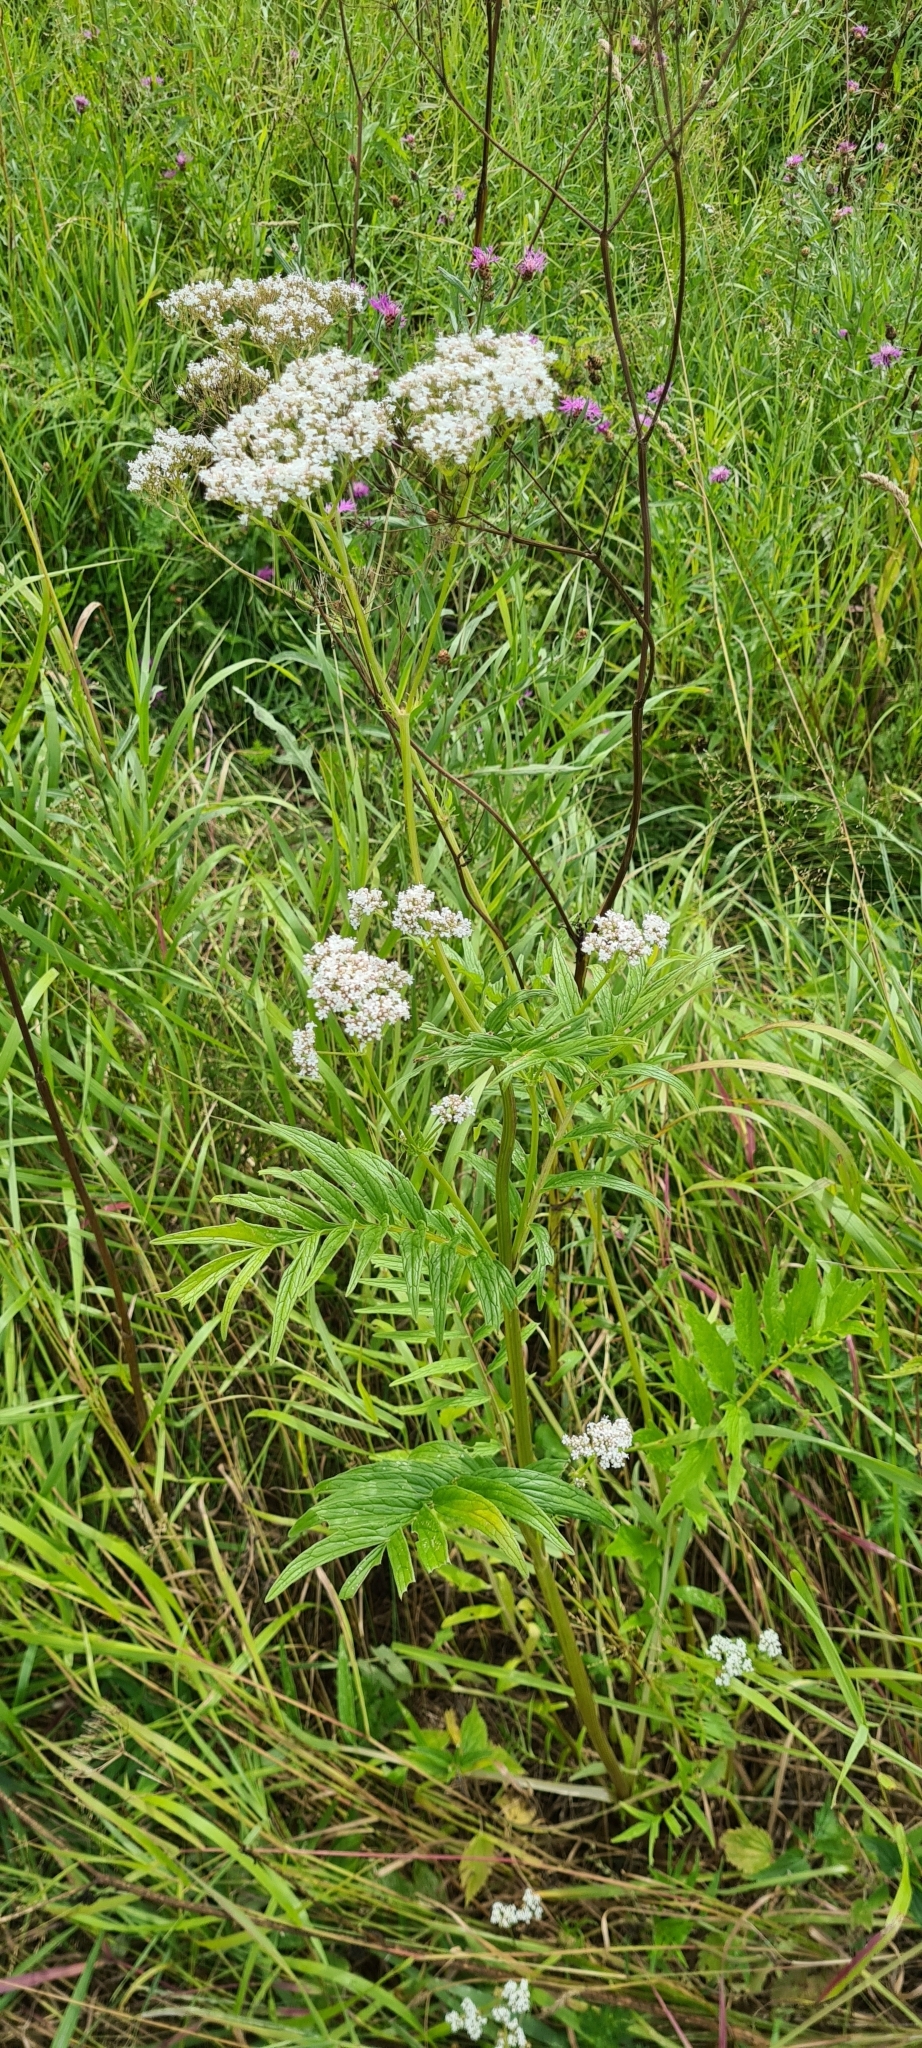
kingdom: Plantae
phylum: Tracheophyta
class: Magnoliopsida
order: Dipsacales
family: Caprifoliaceae
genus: Valeriana
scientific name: Valeriana officinalis
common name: Common valerian
